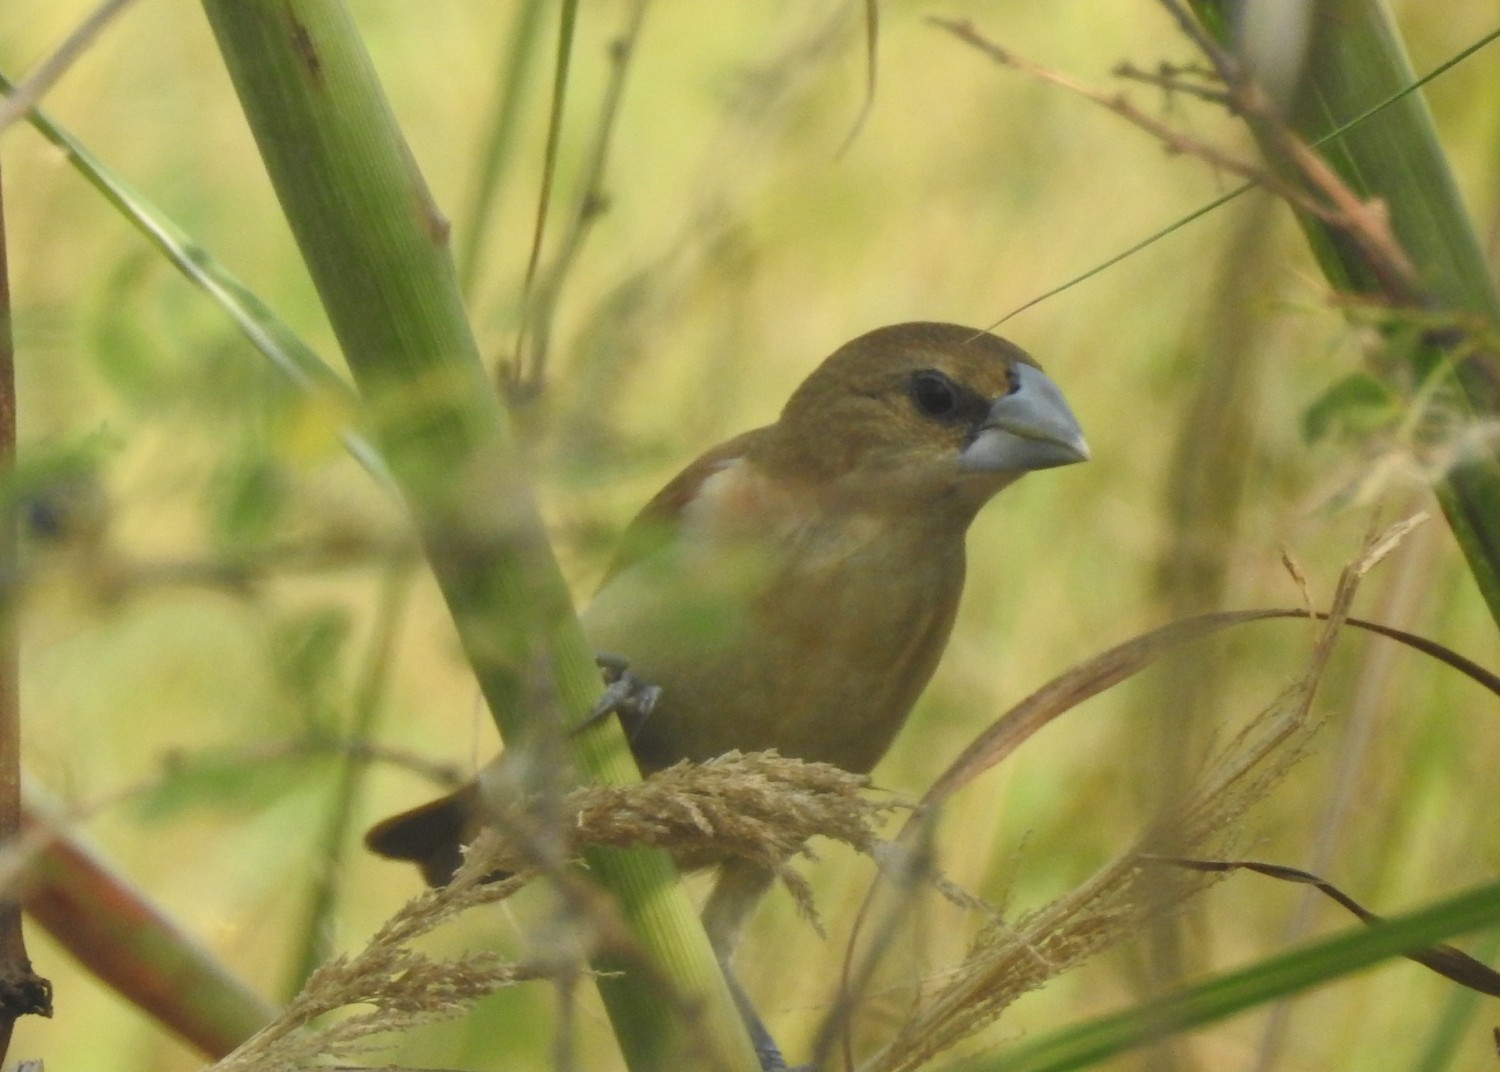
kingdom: Animalia
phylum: Chordata
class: Aves
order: Passeriformes
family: Estrildidae
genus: Lonchura
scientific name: Lonchura malacca
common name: Tricolored munia
